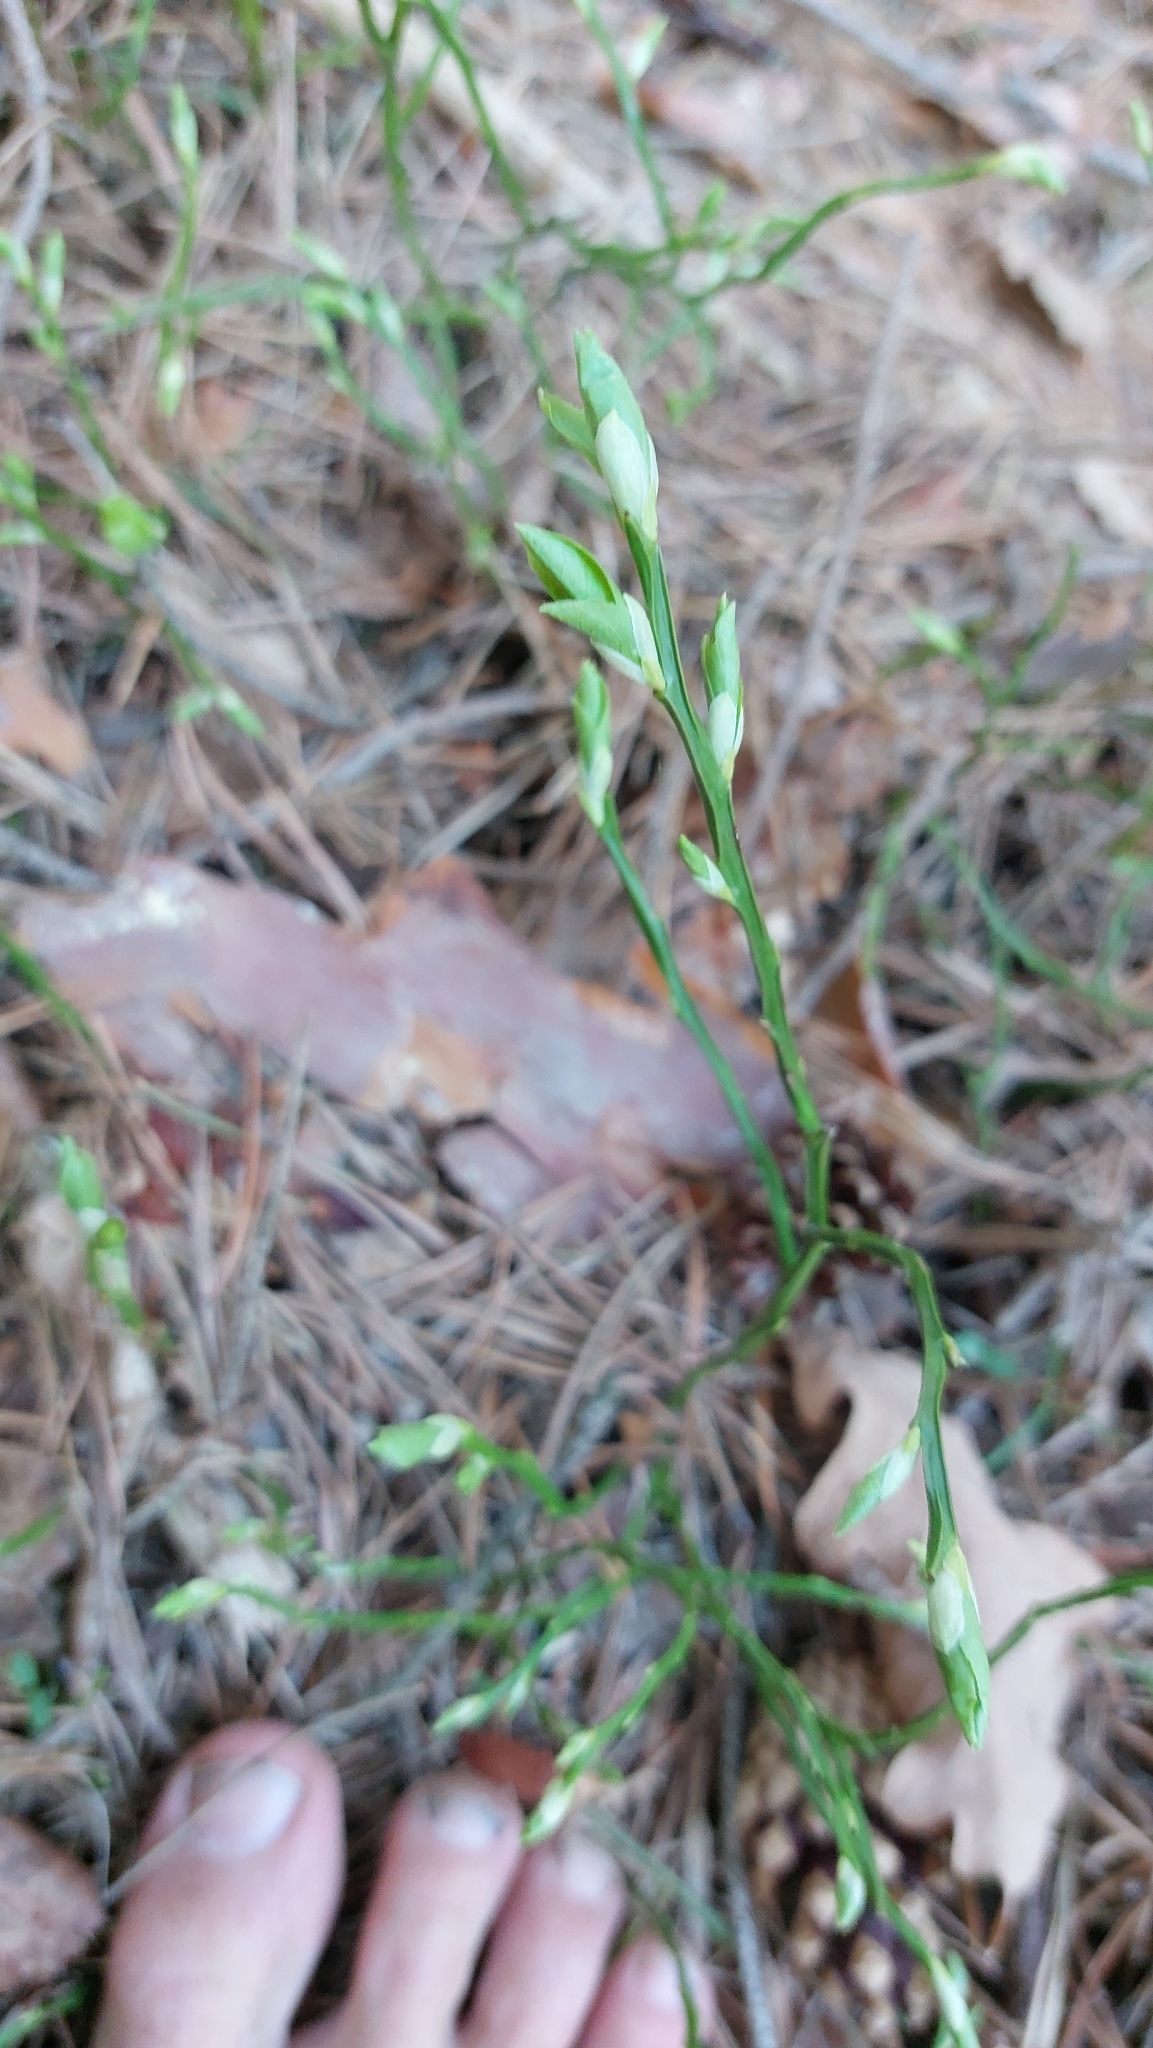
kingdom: Plantae
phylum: Tracheophyta
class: Magnoliopsida
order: Ericales
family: Ericaceae
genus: Vaccinium
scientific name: Vaccinium myrtillus
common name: Bilberry
